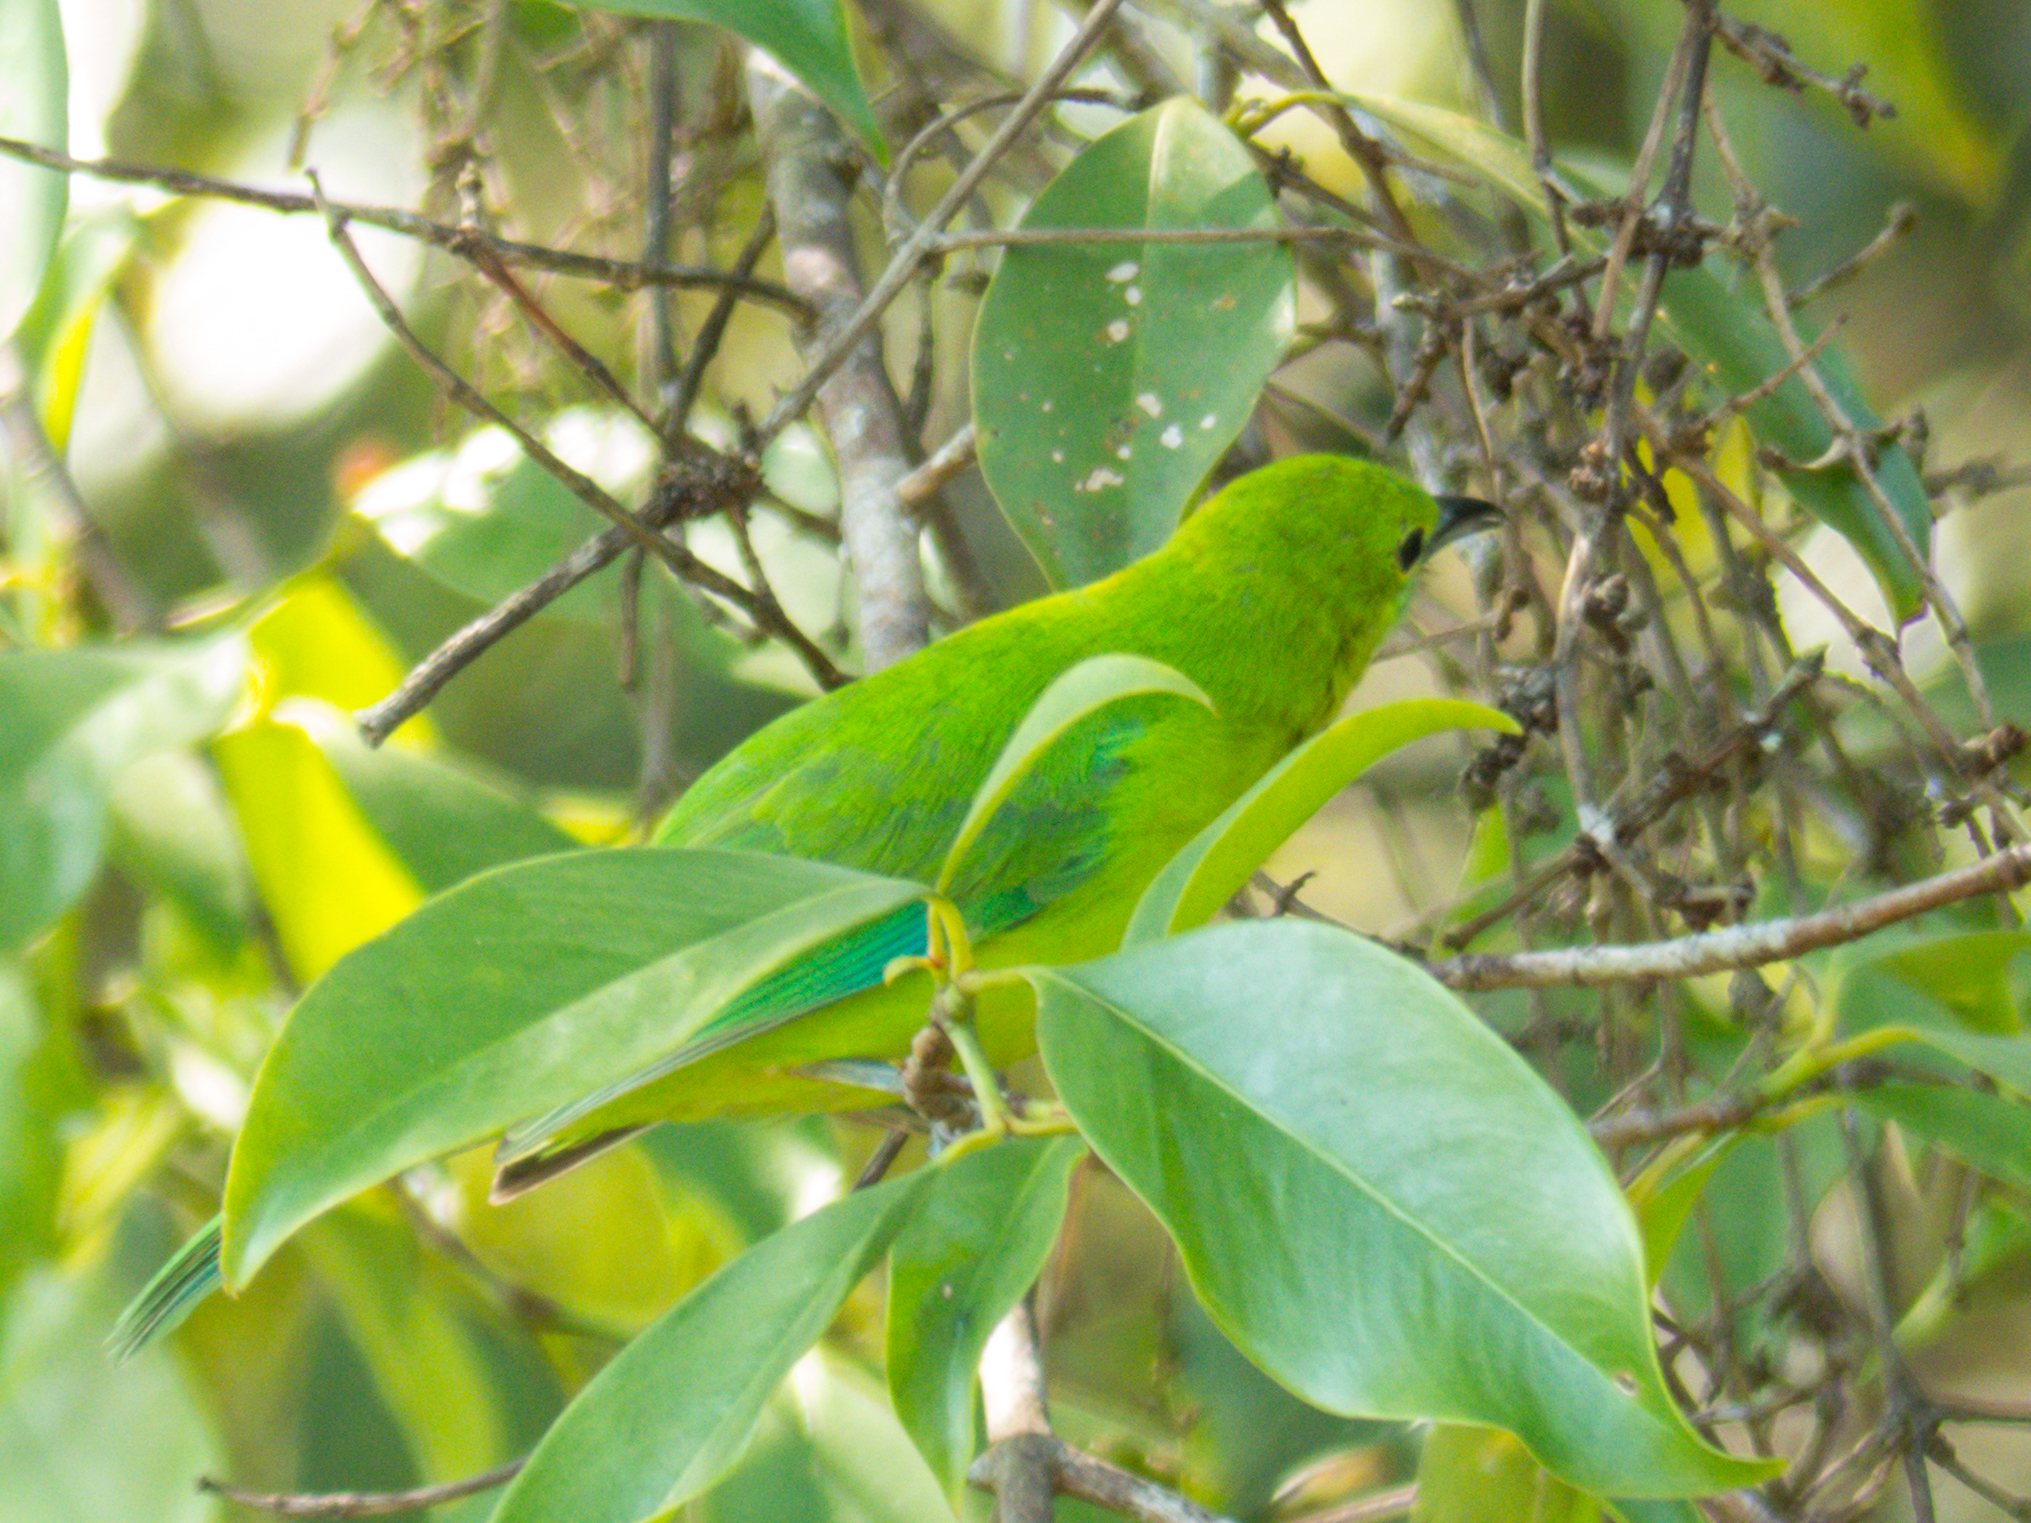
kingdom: Animalia
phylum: Chordata
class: Aves
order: Passeriformes
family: Chloropseidae
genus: Chloropsis
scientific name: Chloropsis moluccensis
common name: Blue-winged leafbird
